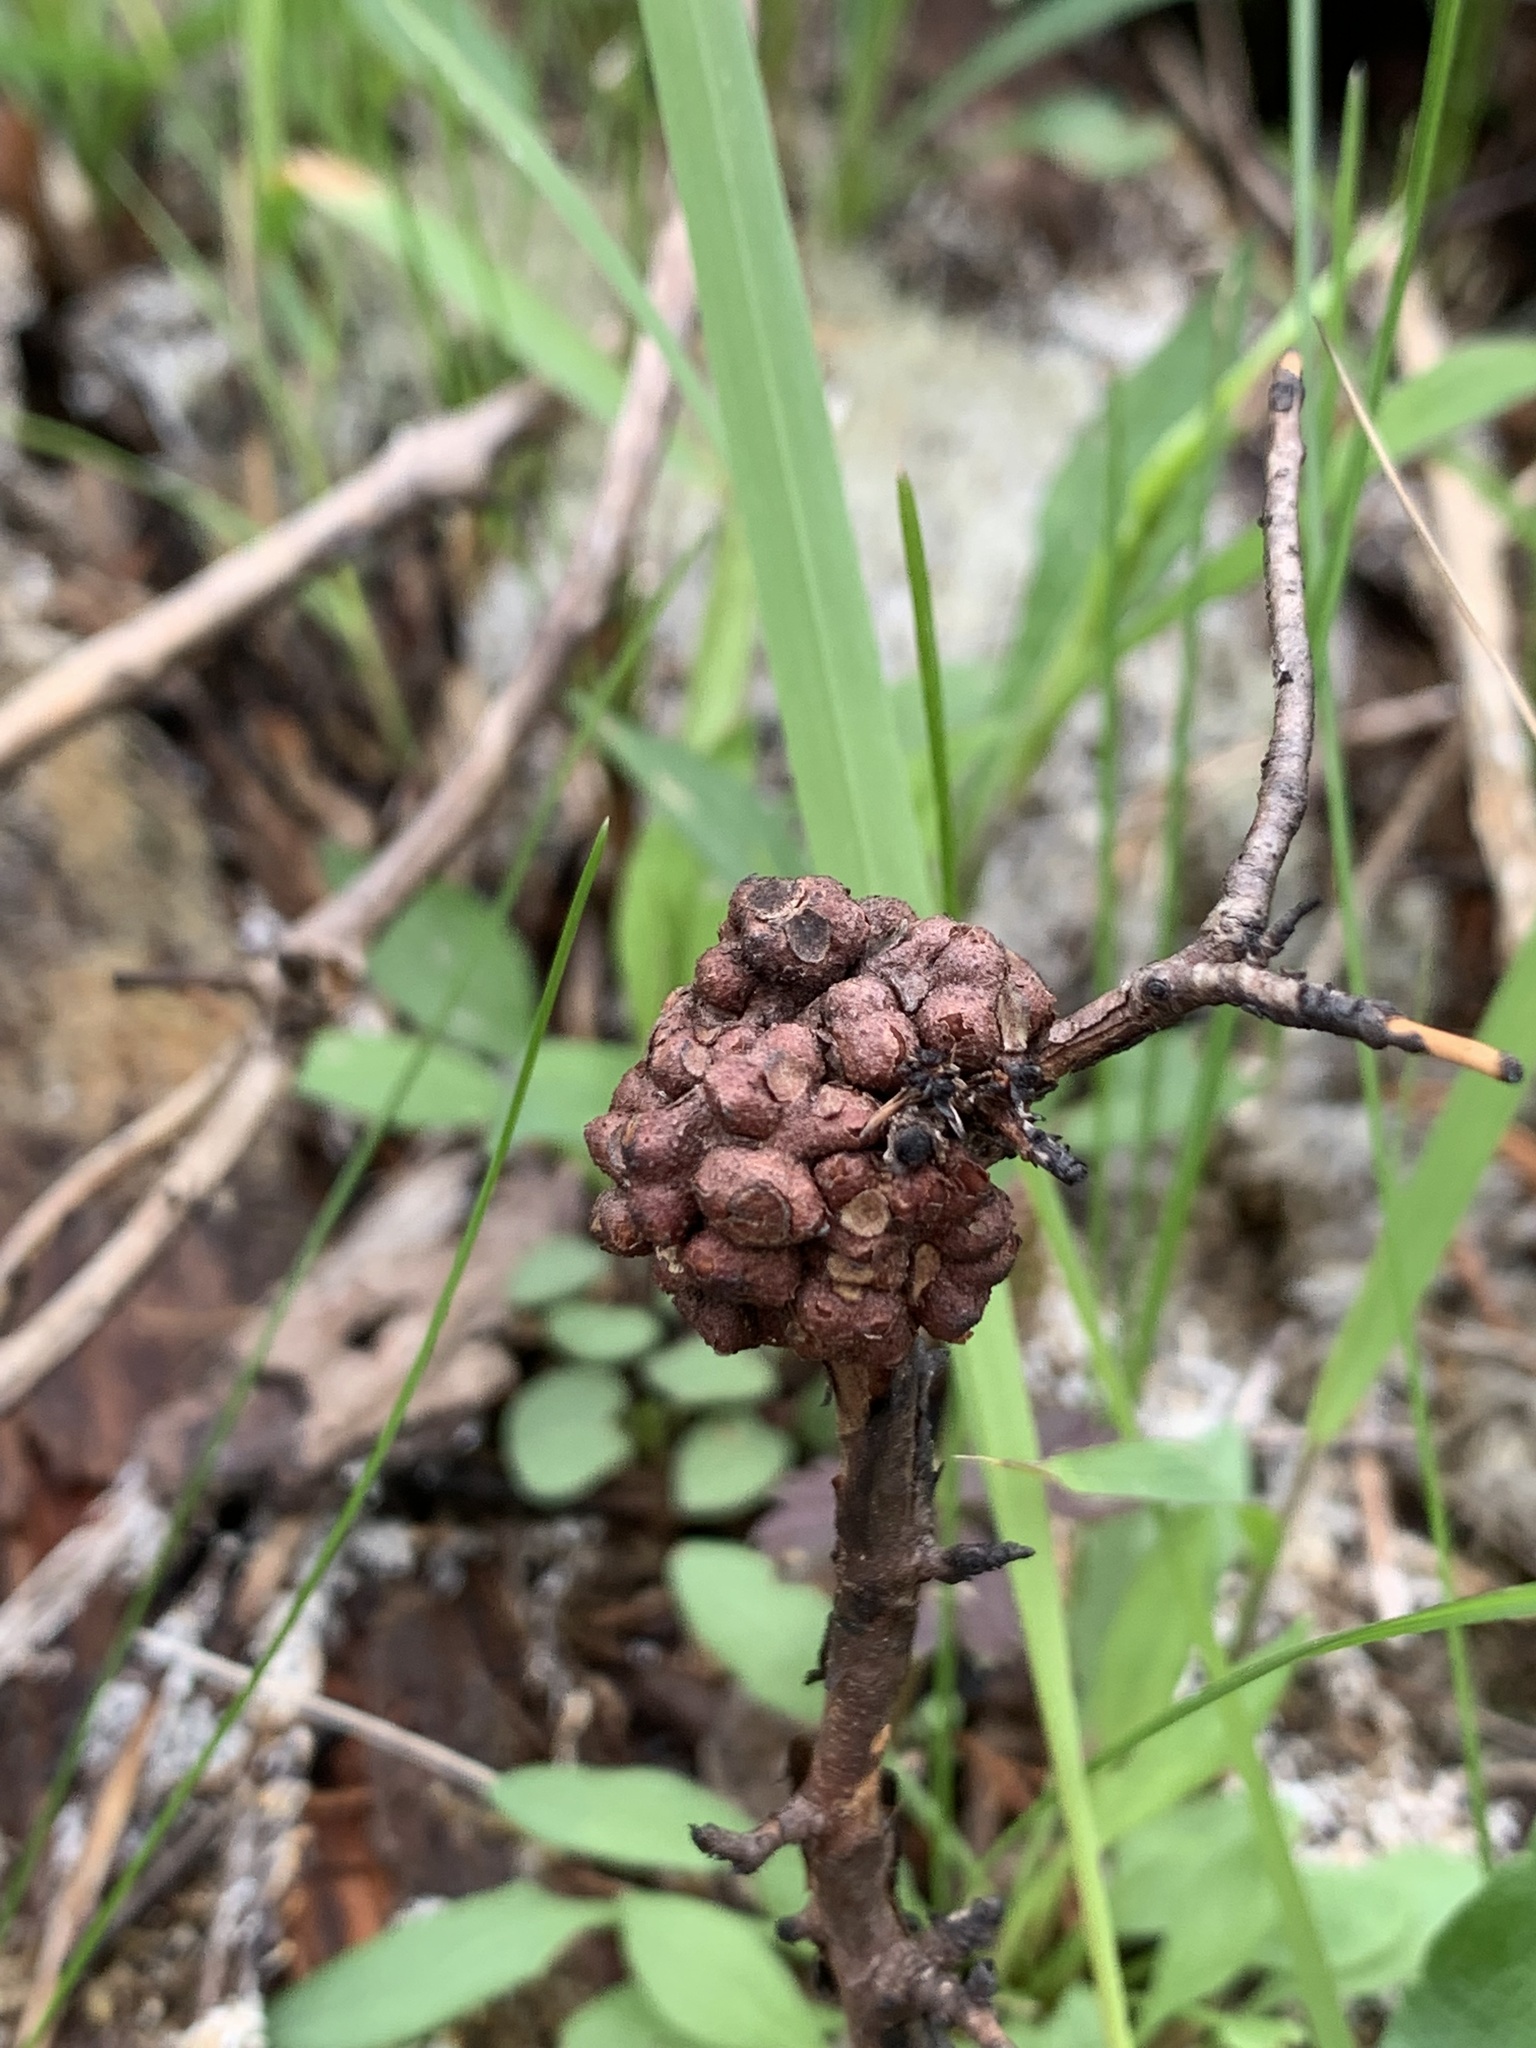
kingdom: Animalia
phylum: Arthropoda
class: Insecta
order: Hymenoptera
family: Cynipidae
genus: Diastrophus
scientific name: Diastrophus
